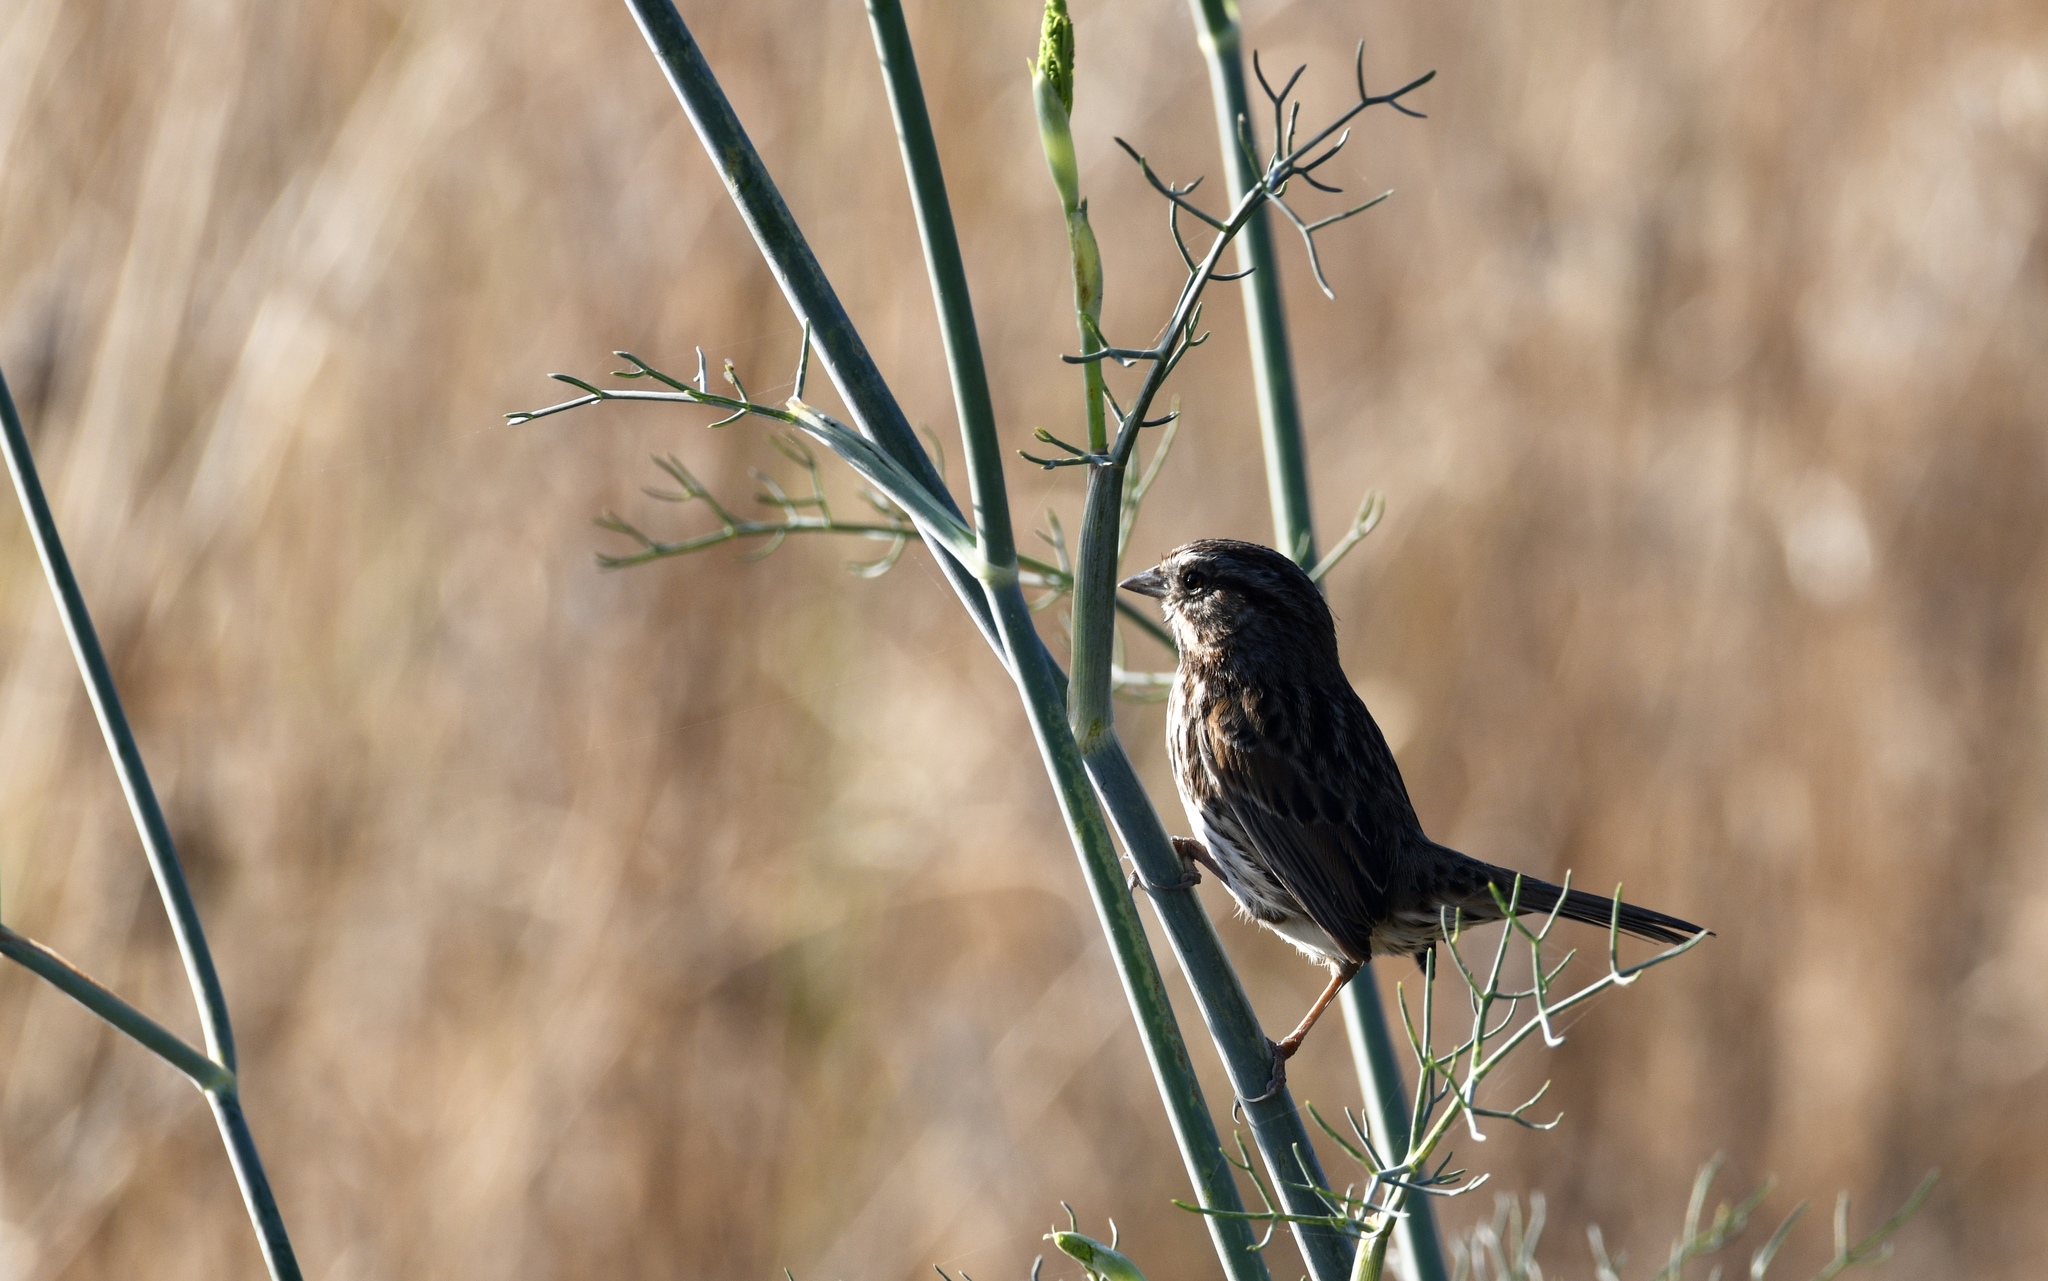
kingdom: Animalia
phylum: Chordata
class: Aves
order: Passeriformes
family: Passerellidae
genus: Melospiza
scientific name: Melospiza melodia
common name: Song sparrow
